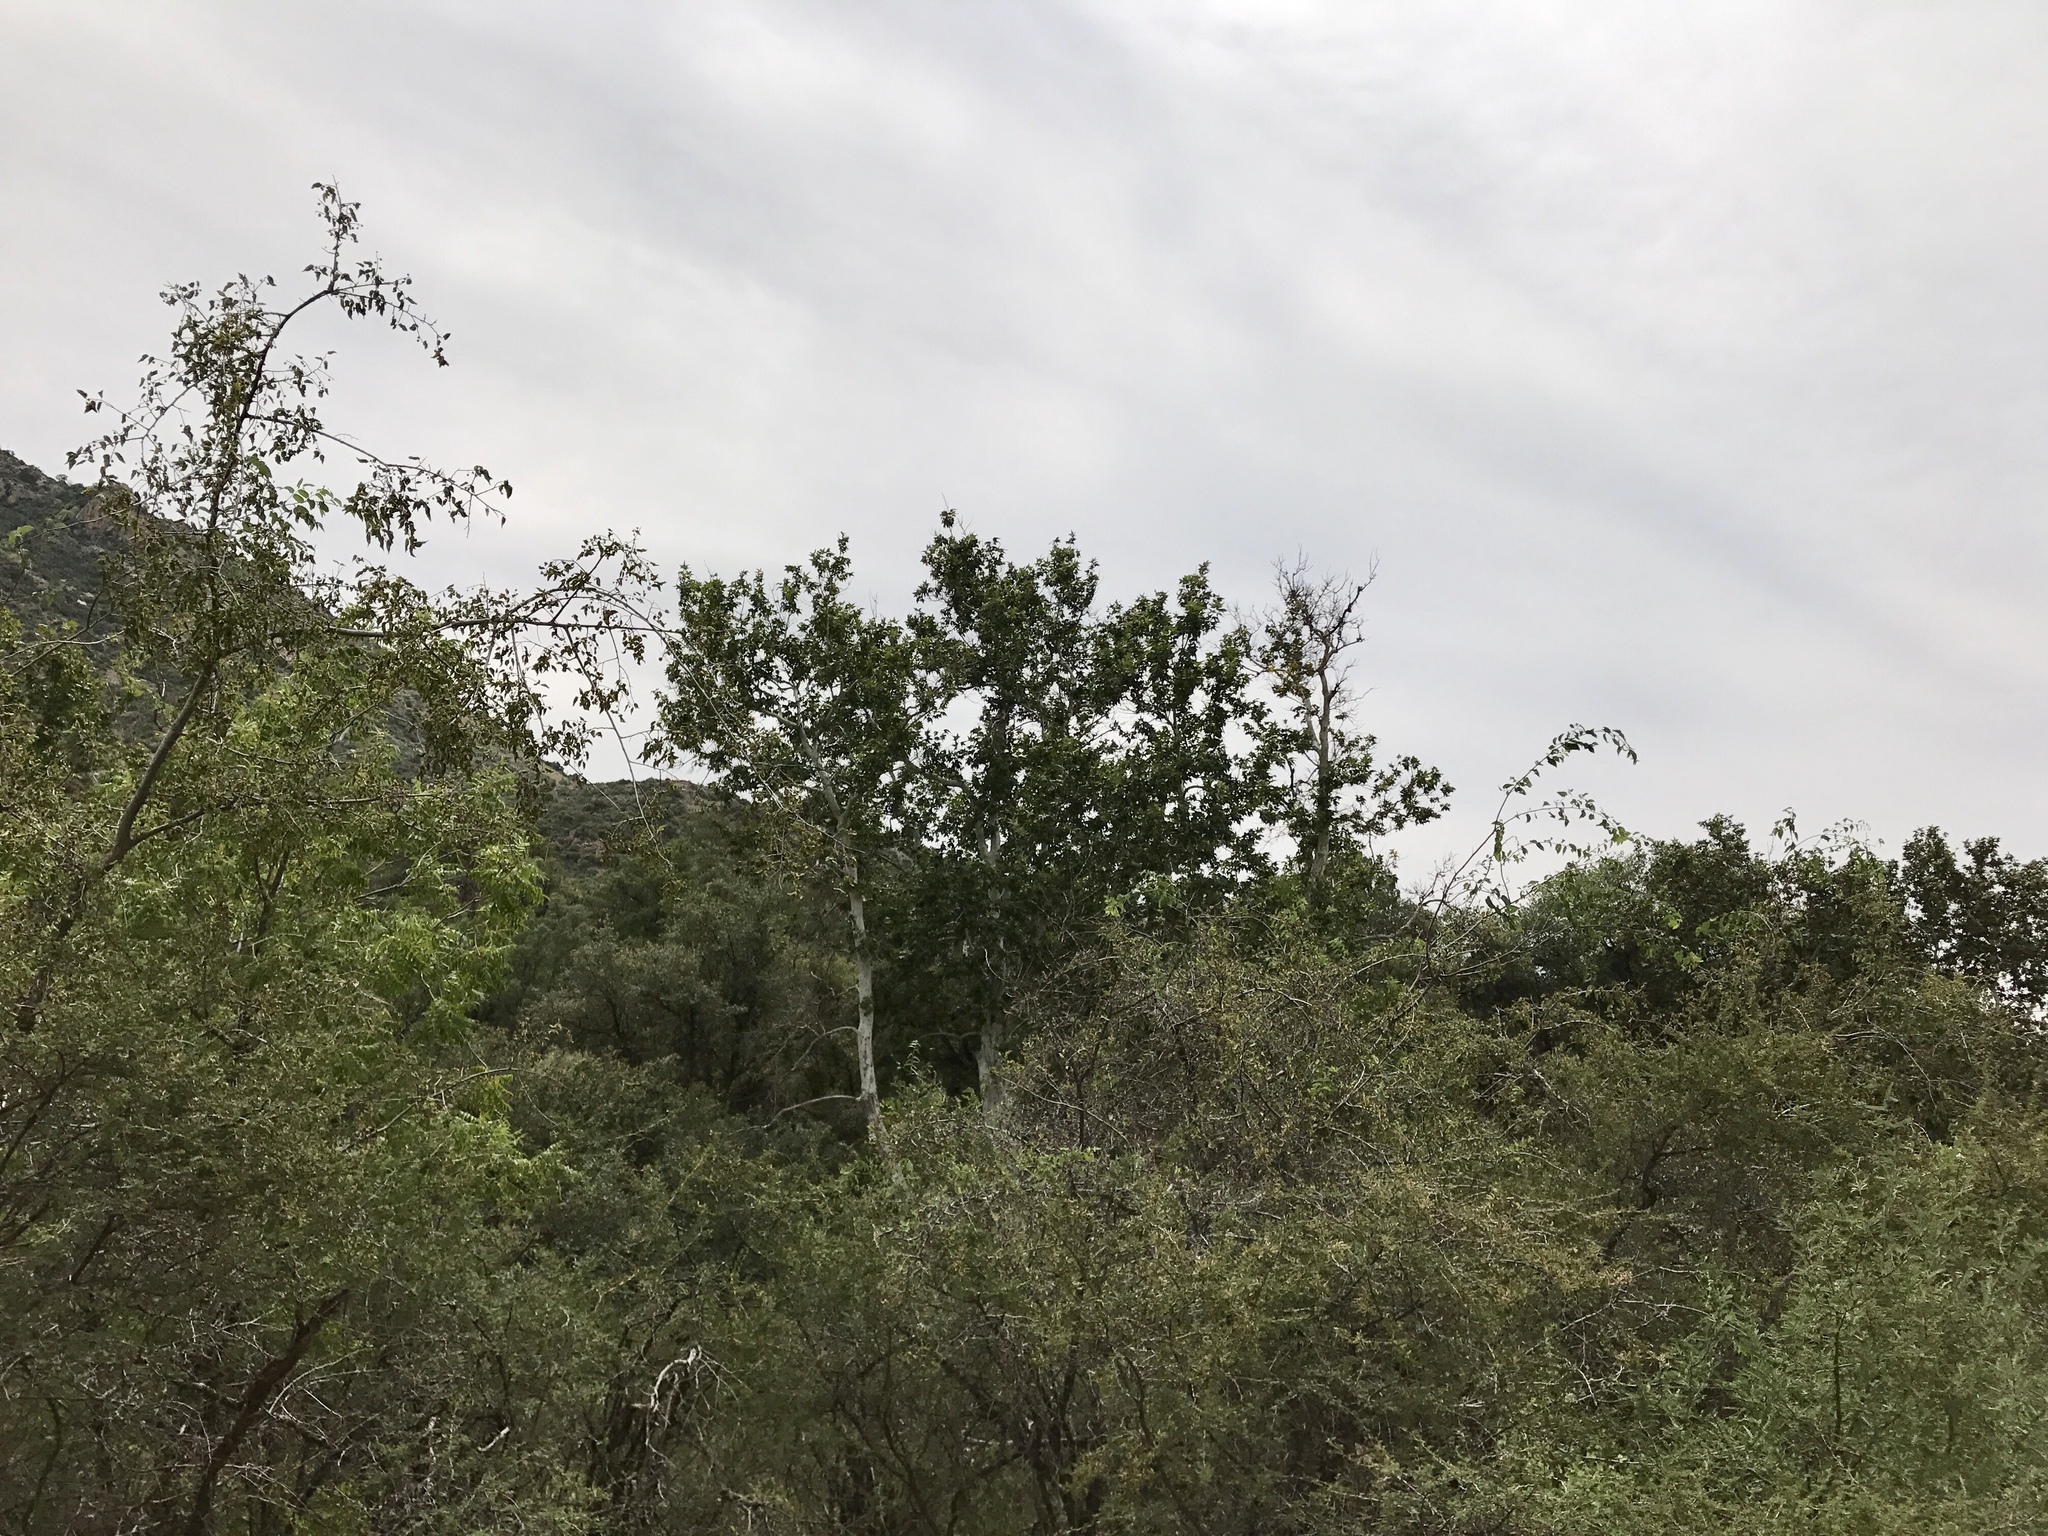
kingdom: Plantae
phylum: Tracheophyta
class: Magnoliopsida
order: Proteales
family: Platanaceae
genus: Platanus
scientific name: Platanus wrightii
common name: Arizona sycamore
